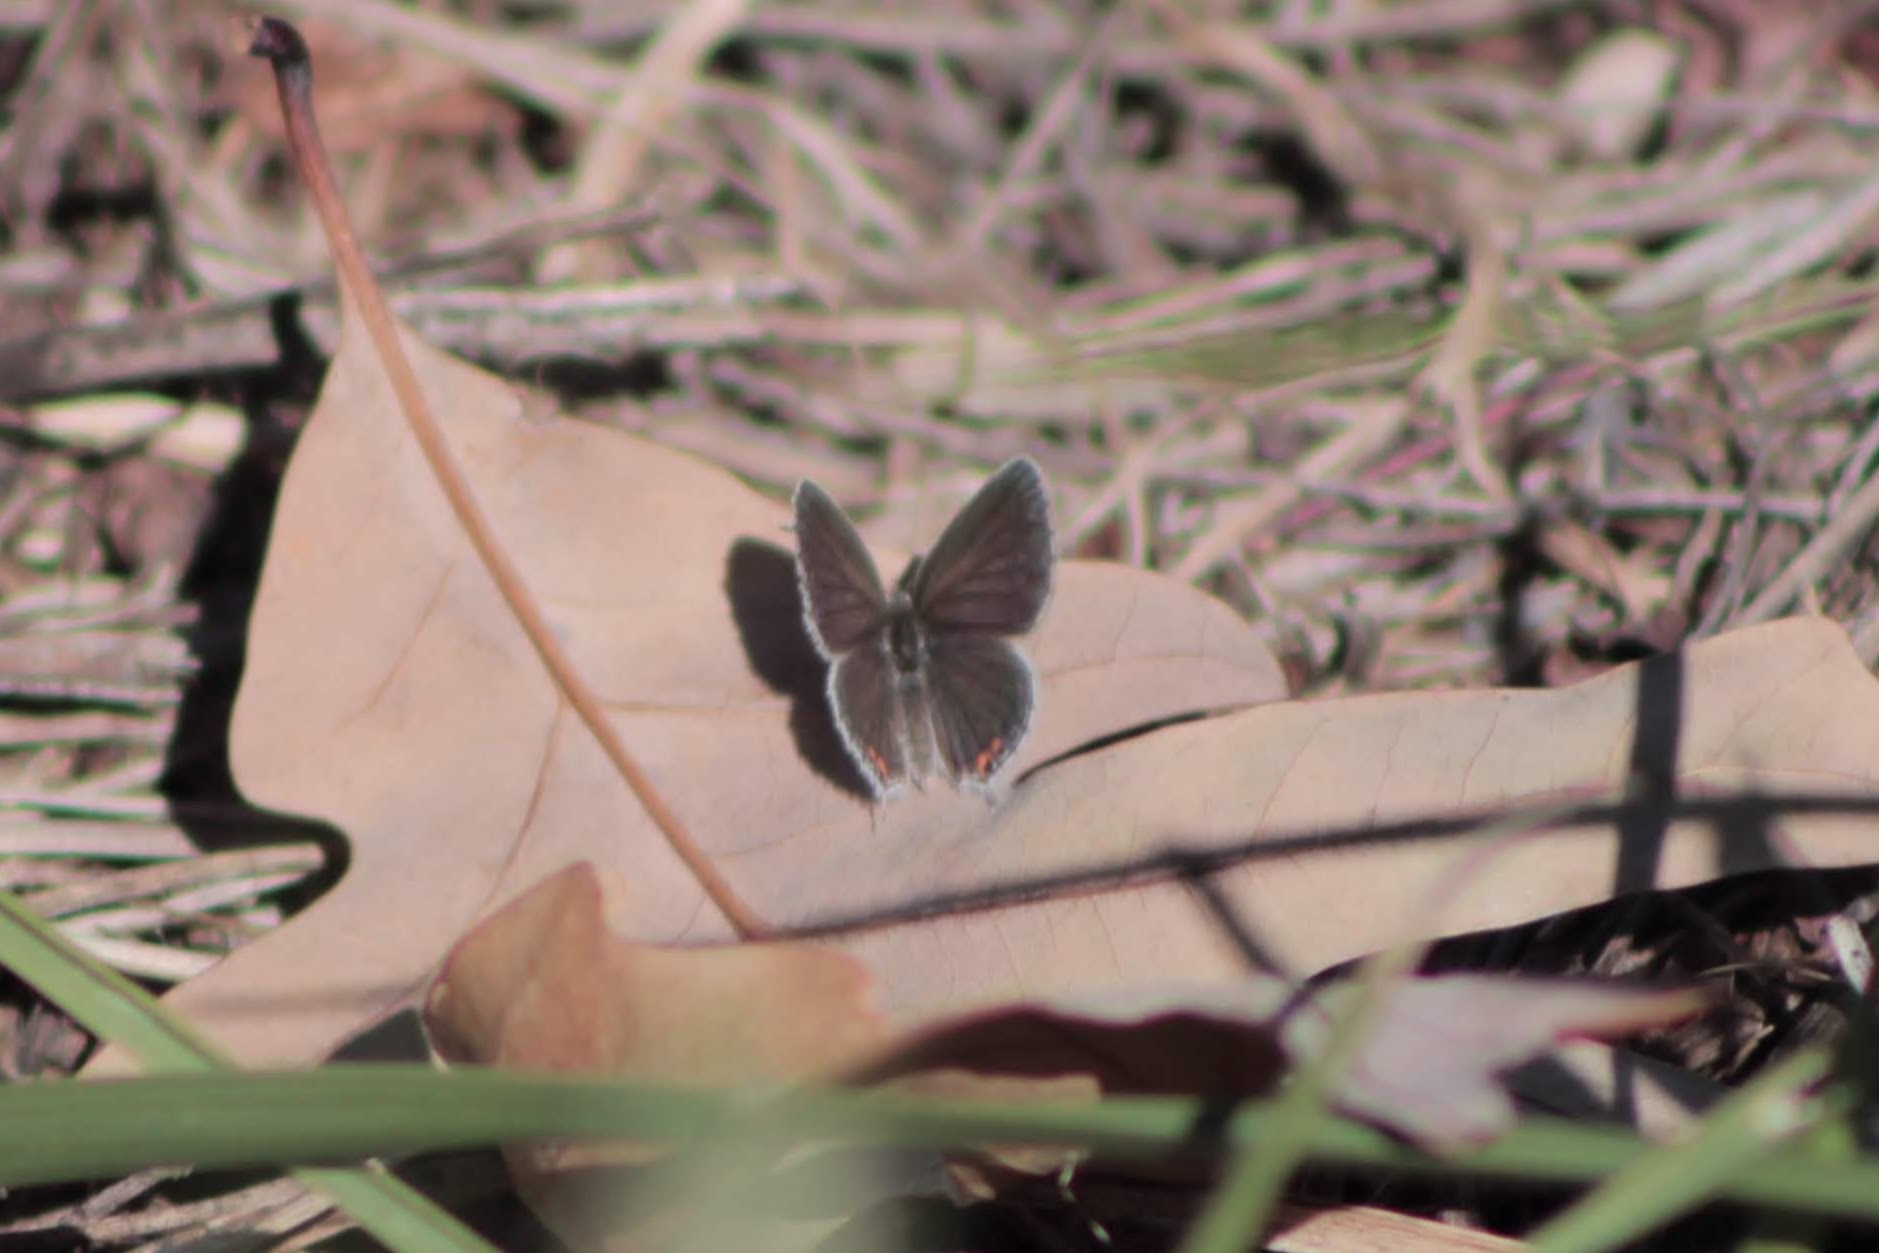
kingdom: Animalia
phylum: Arthropoda
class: Insecta
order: Lepidoptera
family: Lycaenidae
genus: Elkalyce
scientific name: Elkalyce comyntas
